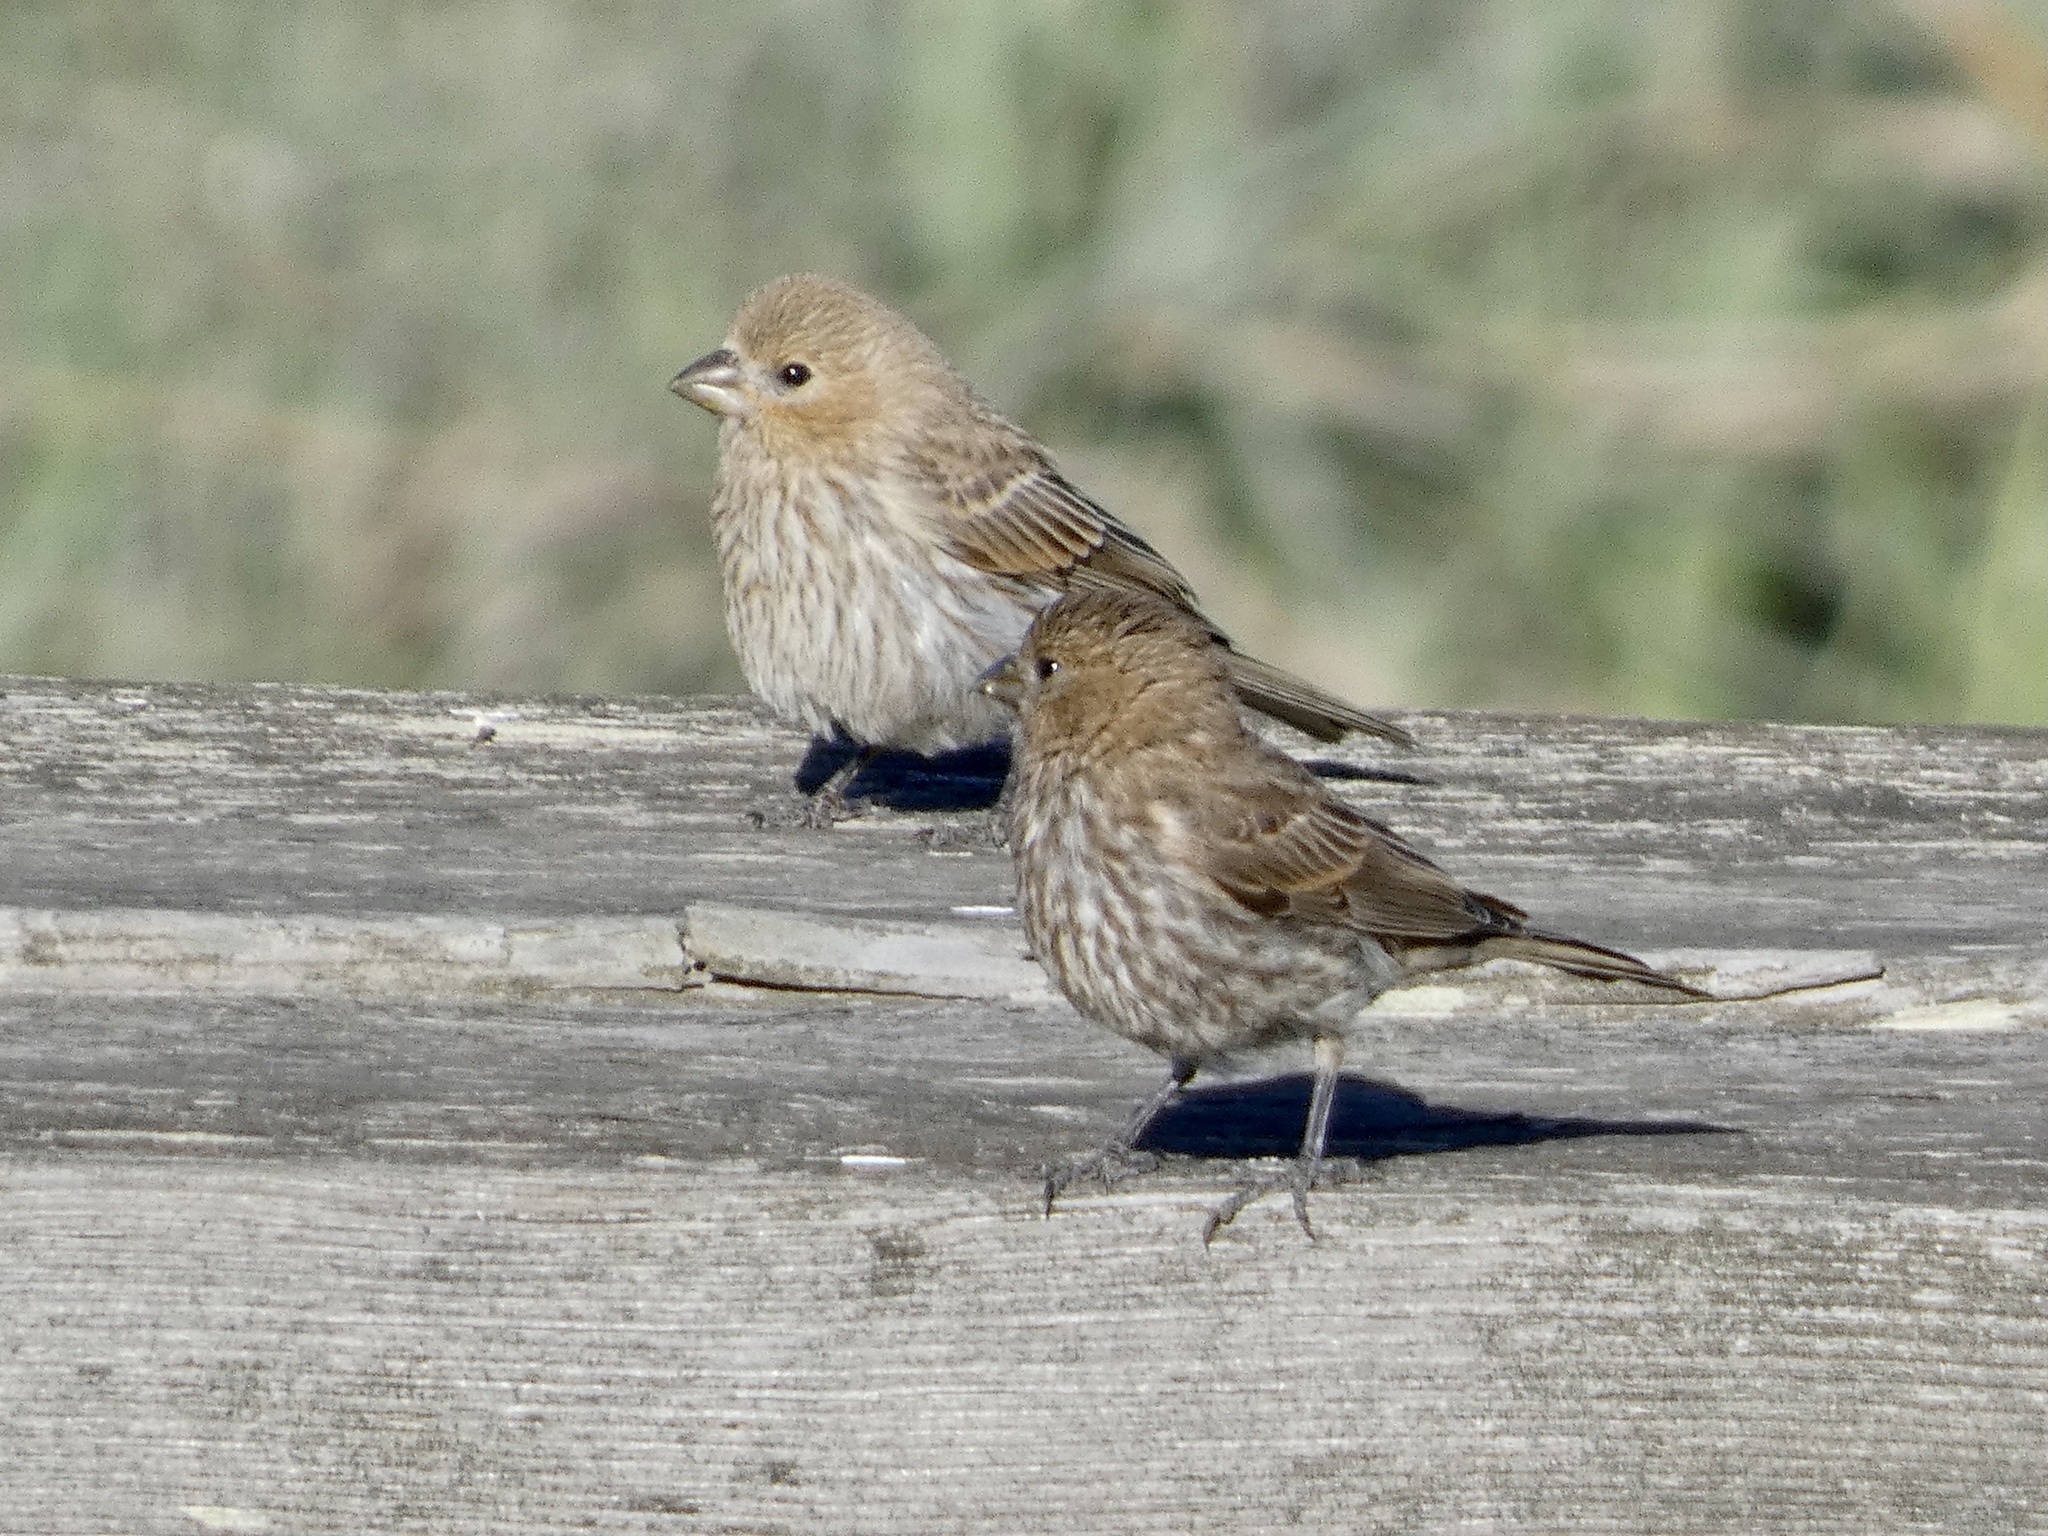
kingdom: Animalia
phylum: Chordata
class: Aves
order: Passeriformes
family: Fringillidae
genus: Haemorhous
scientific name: Haemorhous mexicanus
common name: House finch
